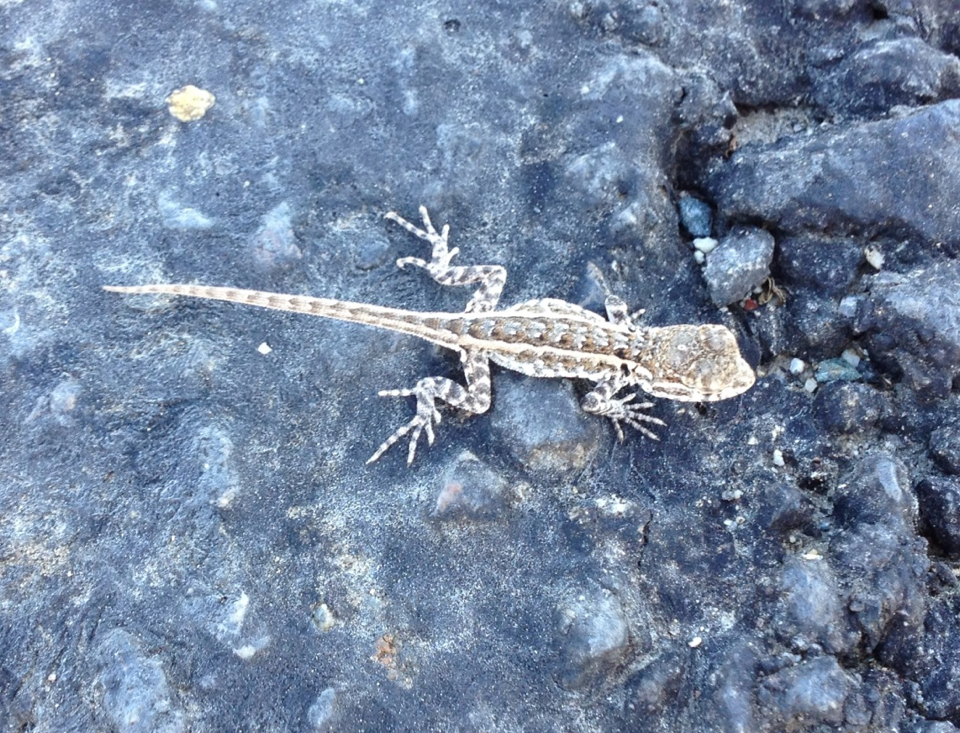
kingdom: Animalia
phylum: Chordata
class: Squamata
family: Phrynosomatidae
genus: Uta
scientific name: Uta stansburiana
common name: Side-blotched lizard
